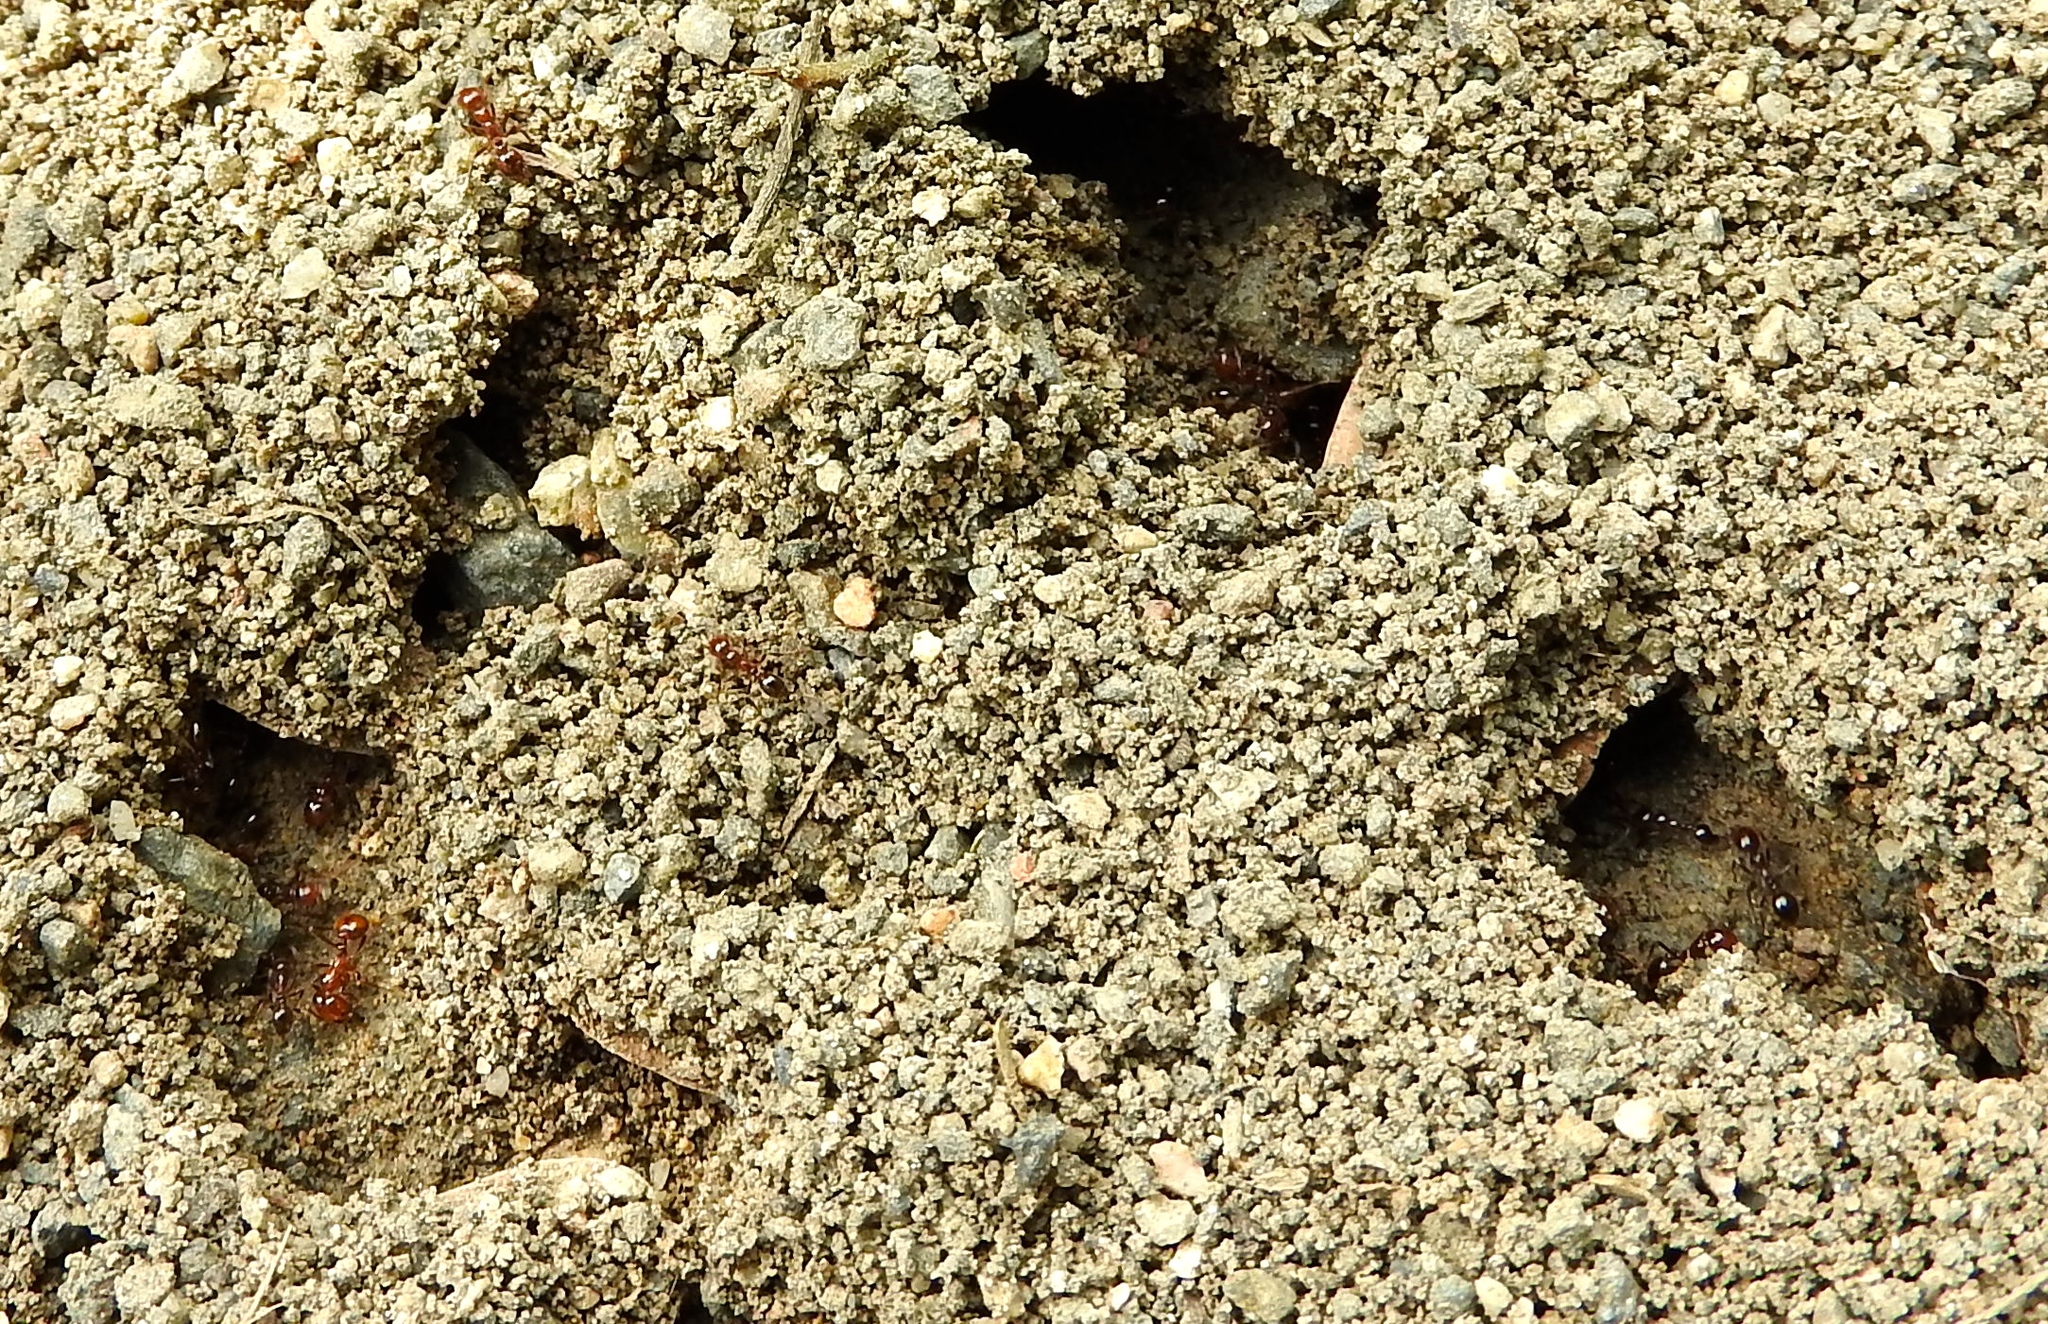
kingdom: Animalia
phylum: Arthropoda
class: Insecta
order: Hymenoptera
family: Formicidae
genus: Solenopsis
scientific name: Solenopsis
